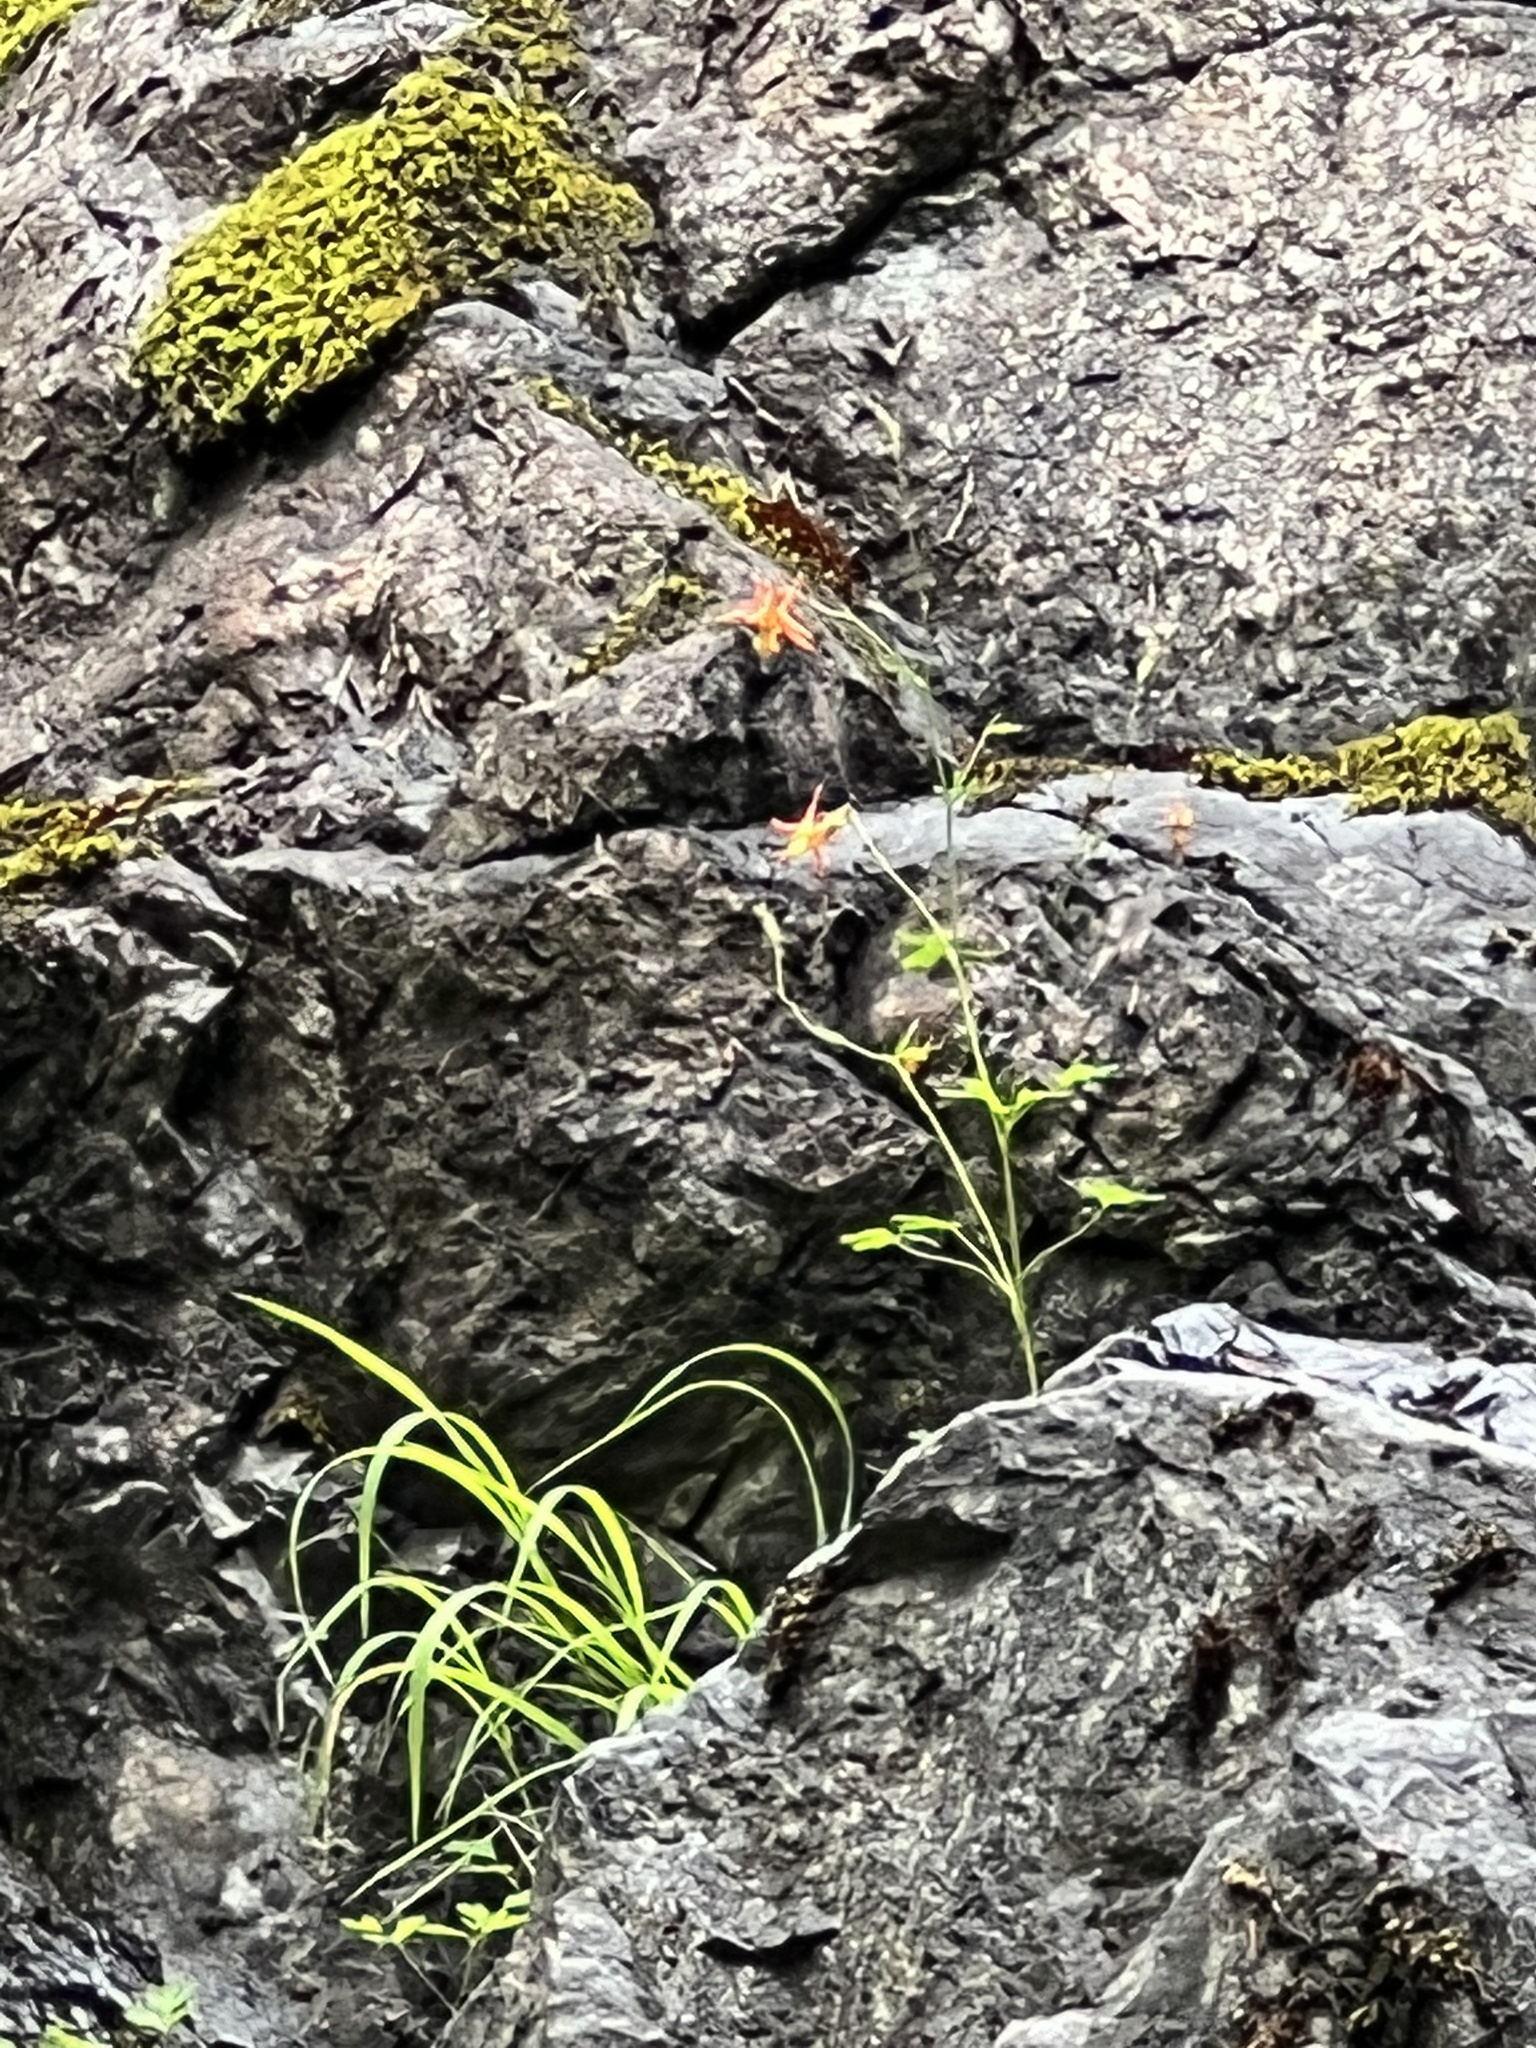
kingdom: Plantae
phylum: Tracheophyta
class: Magnoliopsida
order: Ranunculales
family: Ranunculaceae
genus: Aquilegia
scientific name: Aquilegia formosa
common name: Sitka columbine
